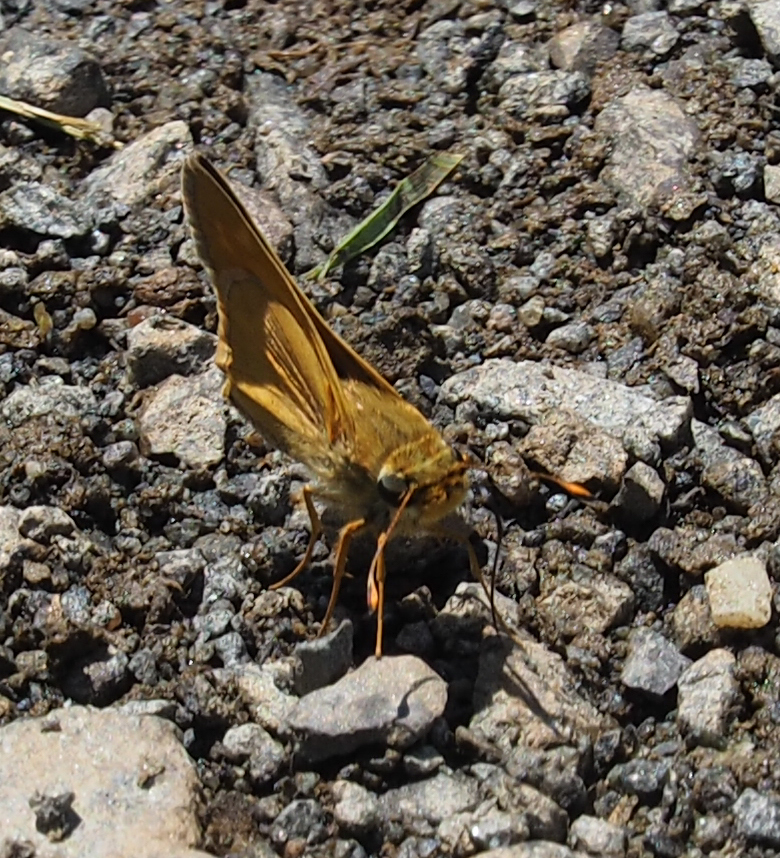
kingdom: Animalia
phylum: Arthropoda
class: Insecta
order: Lepidoptera
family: Hesperiidae
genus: Atalopedes
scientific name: Atalopedes
